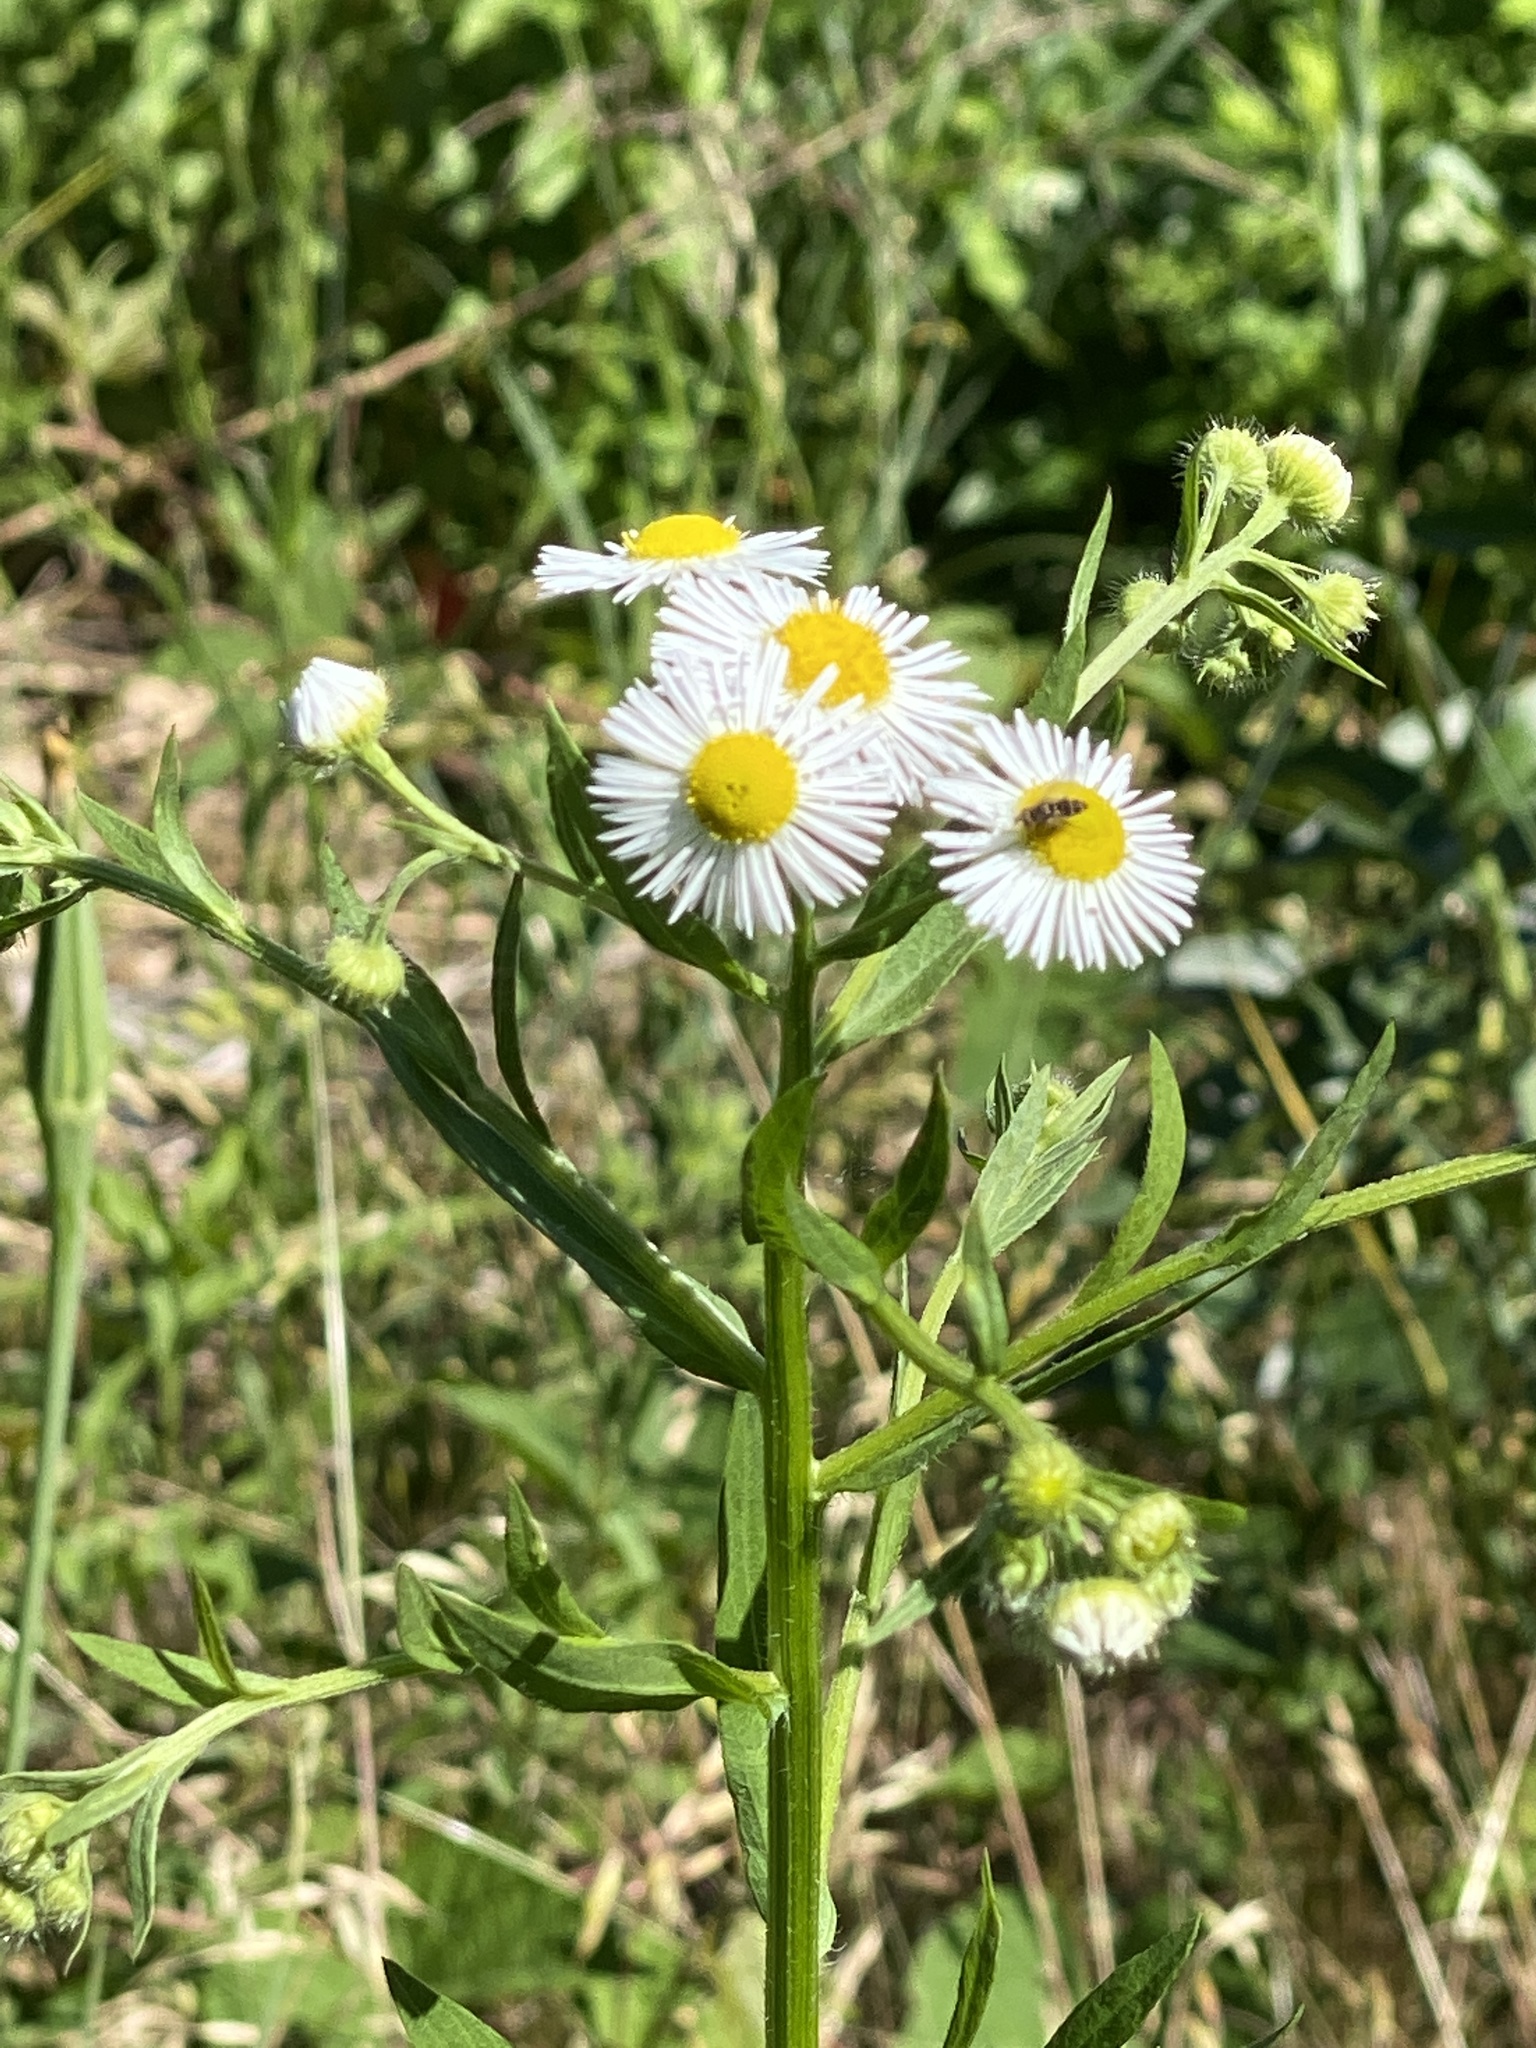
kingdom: Plantae
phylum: Tracheophyta
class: Magnoliopsida
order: Asterales
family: Asteraceae
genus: Erigeron
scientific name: Erigeron annuus
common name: Tall fleabane
